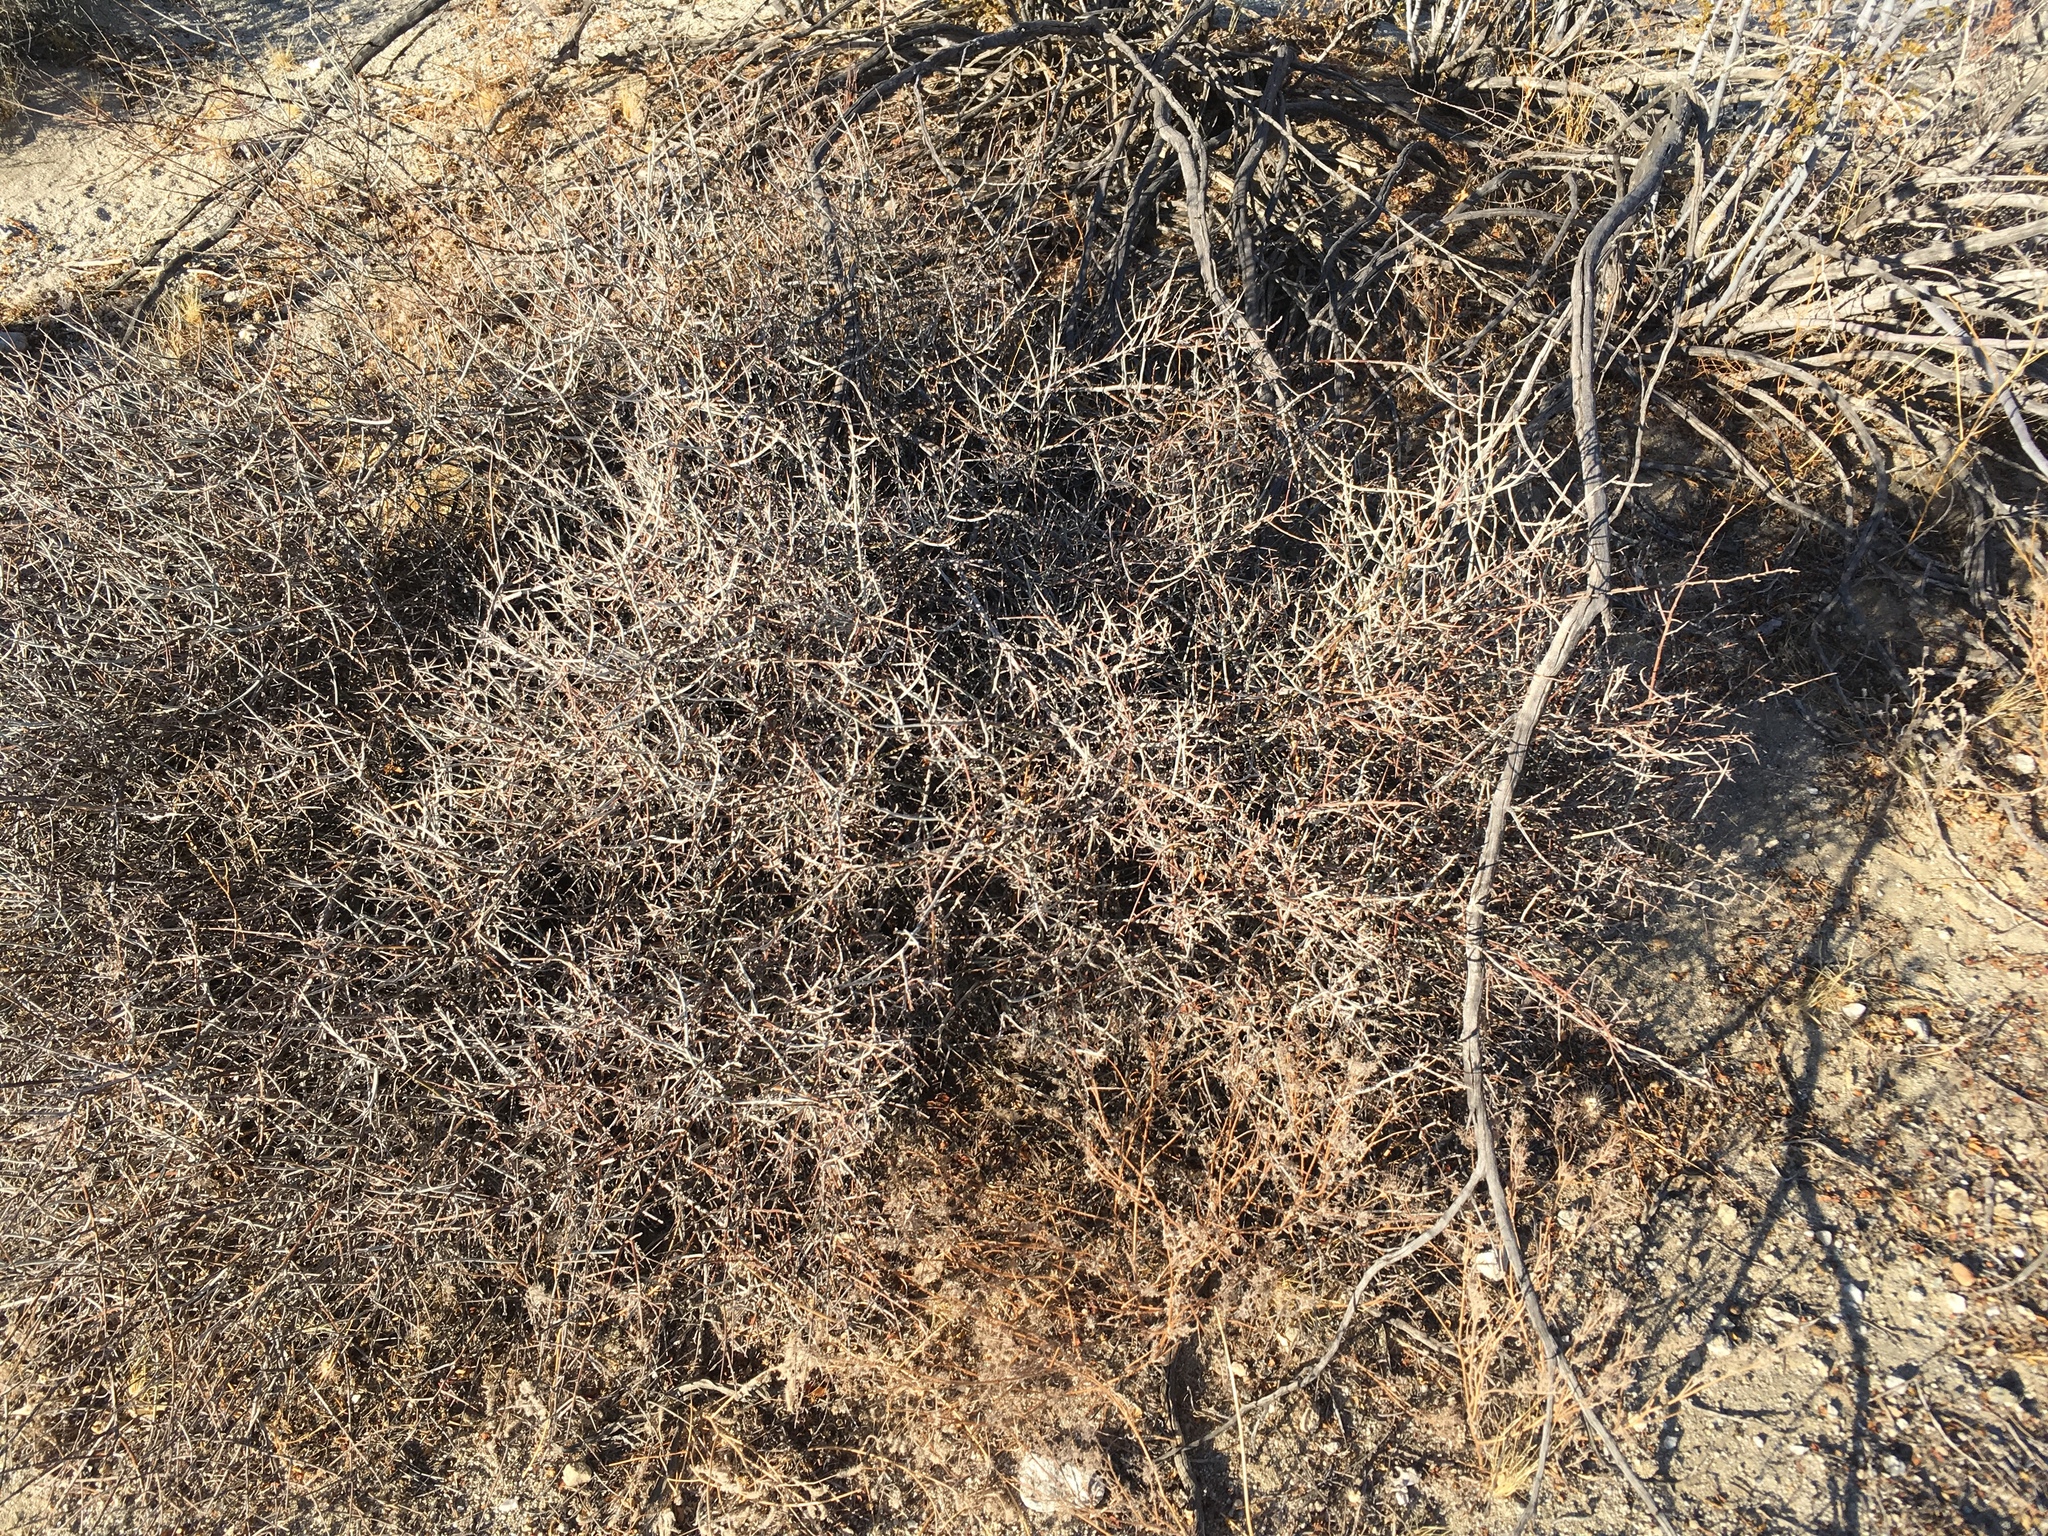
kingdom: Plantae
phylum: Tracheophyta
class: Magnoliopsida
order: Zygophyllales
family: Krameriaceae
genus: Krameria
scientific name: Krameria bicolor
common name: White ratany
